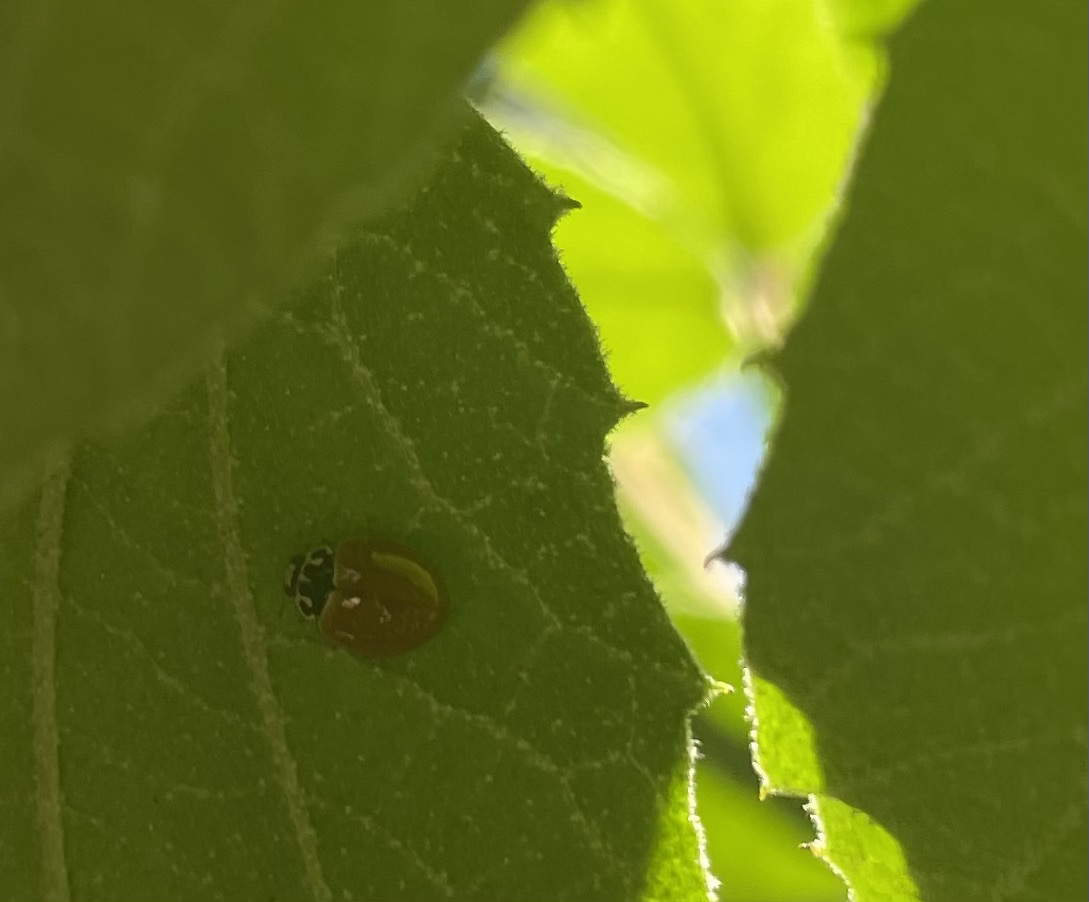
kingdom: Animalia
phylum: Arthropoda
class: Insecta
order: Coleoptera
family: Coccinellidae
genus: Cycloneda
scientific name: Cycloneda munda
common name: Polished lady beetle
